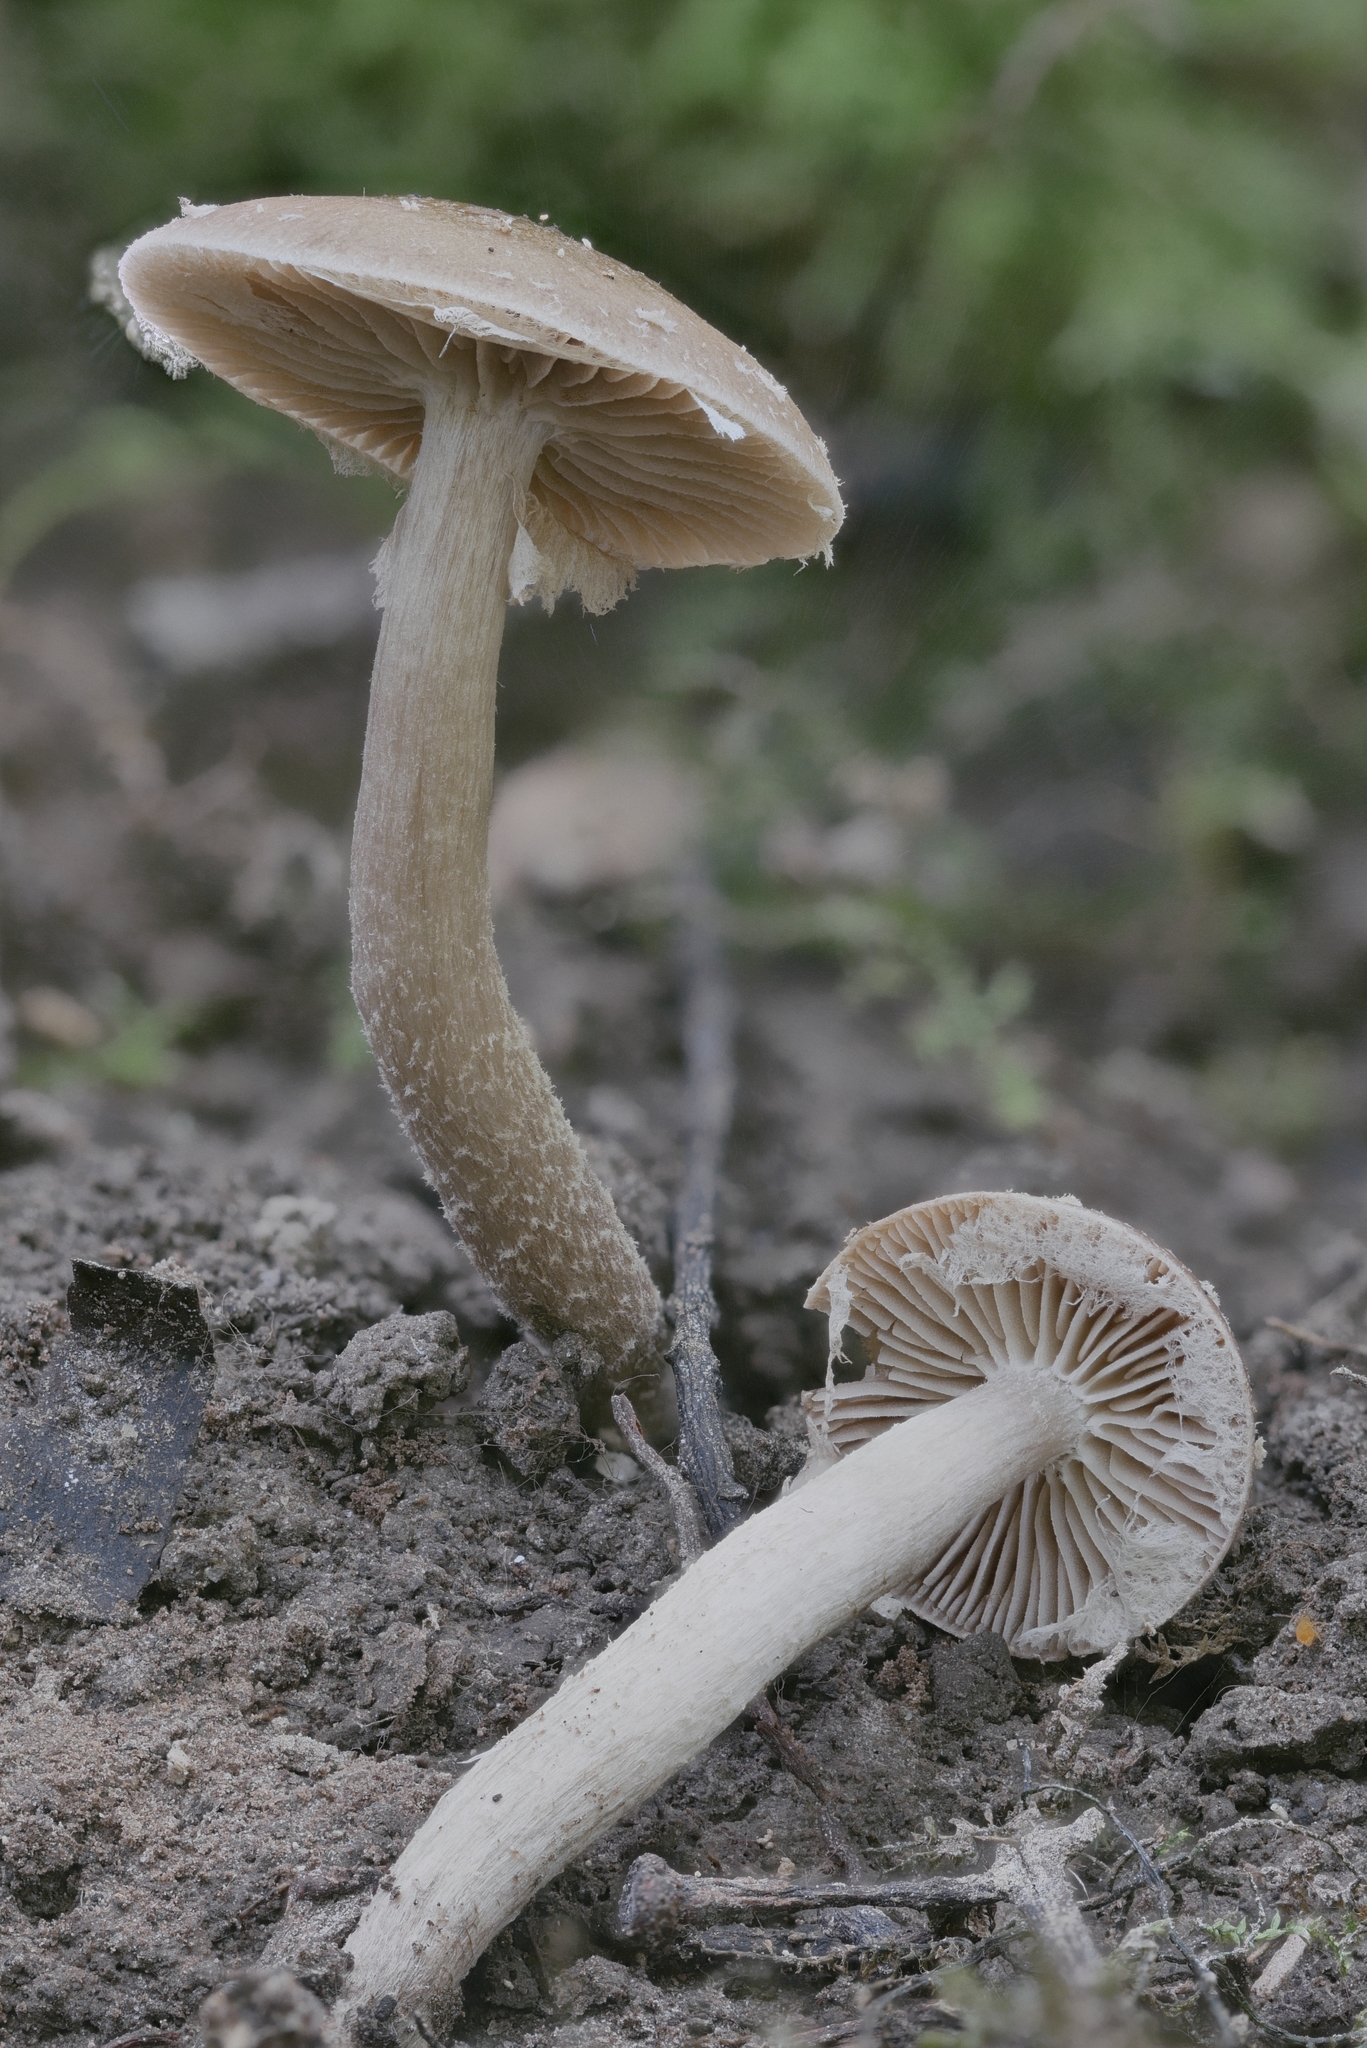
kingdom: Fungi
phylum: Basidiomycota
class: Agaricomycetes
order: Agaricales
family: Tubariaceae
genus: Cyclocybe
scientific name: Cyclocybe erebia
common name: Dark fieldcap
